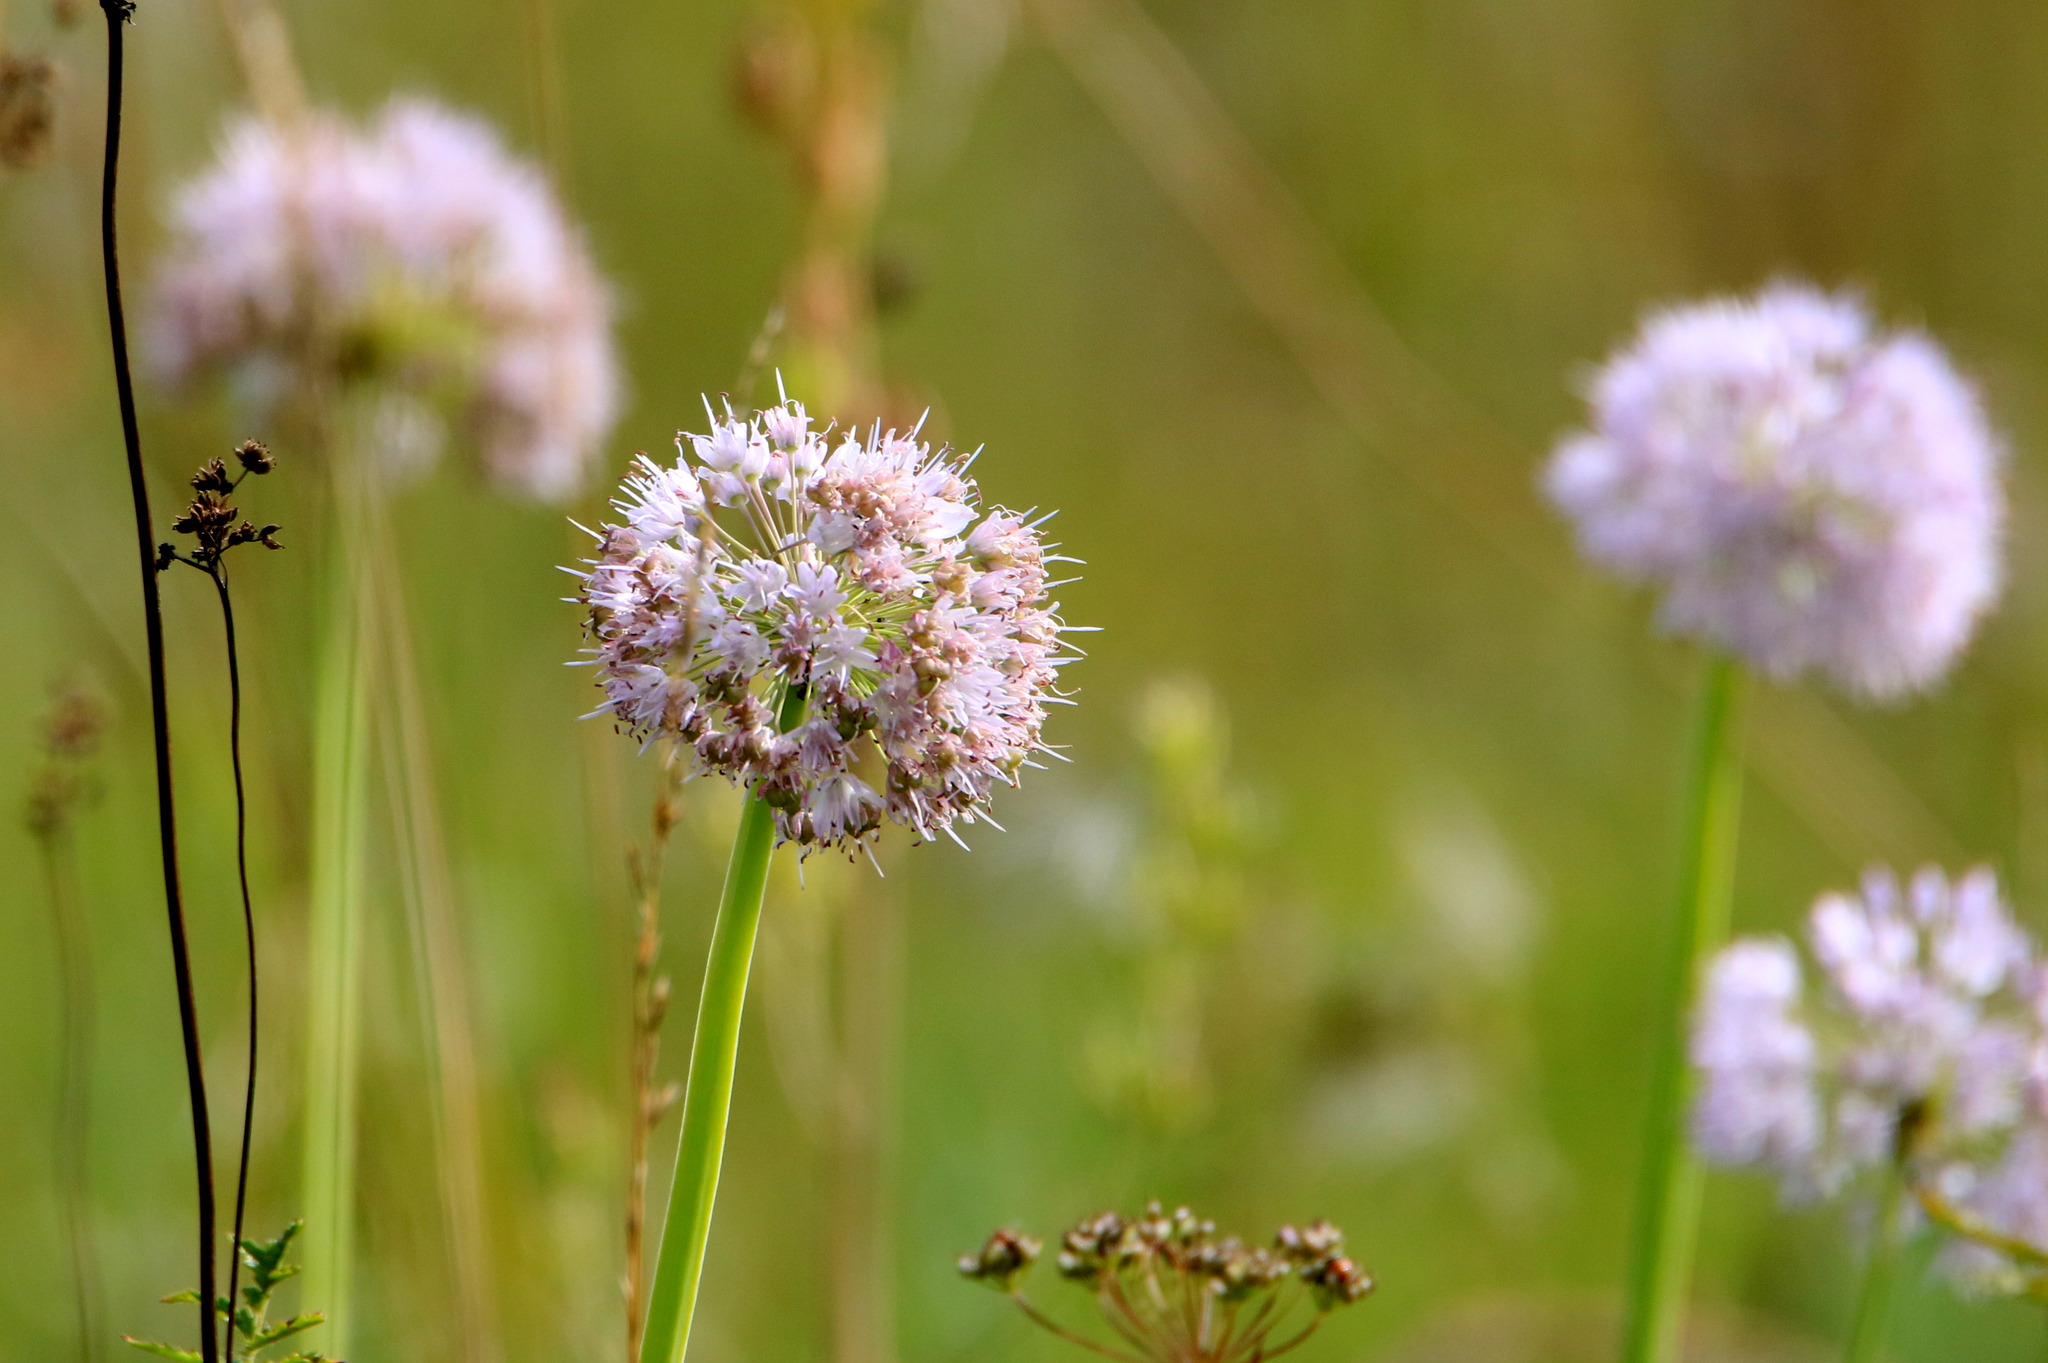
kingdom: Plantae
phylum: Tracheophyta
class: Liliopsida
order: Asparagales
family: Amaryllidaceae
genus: Allium
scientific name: Allium nutans
